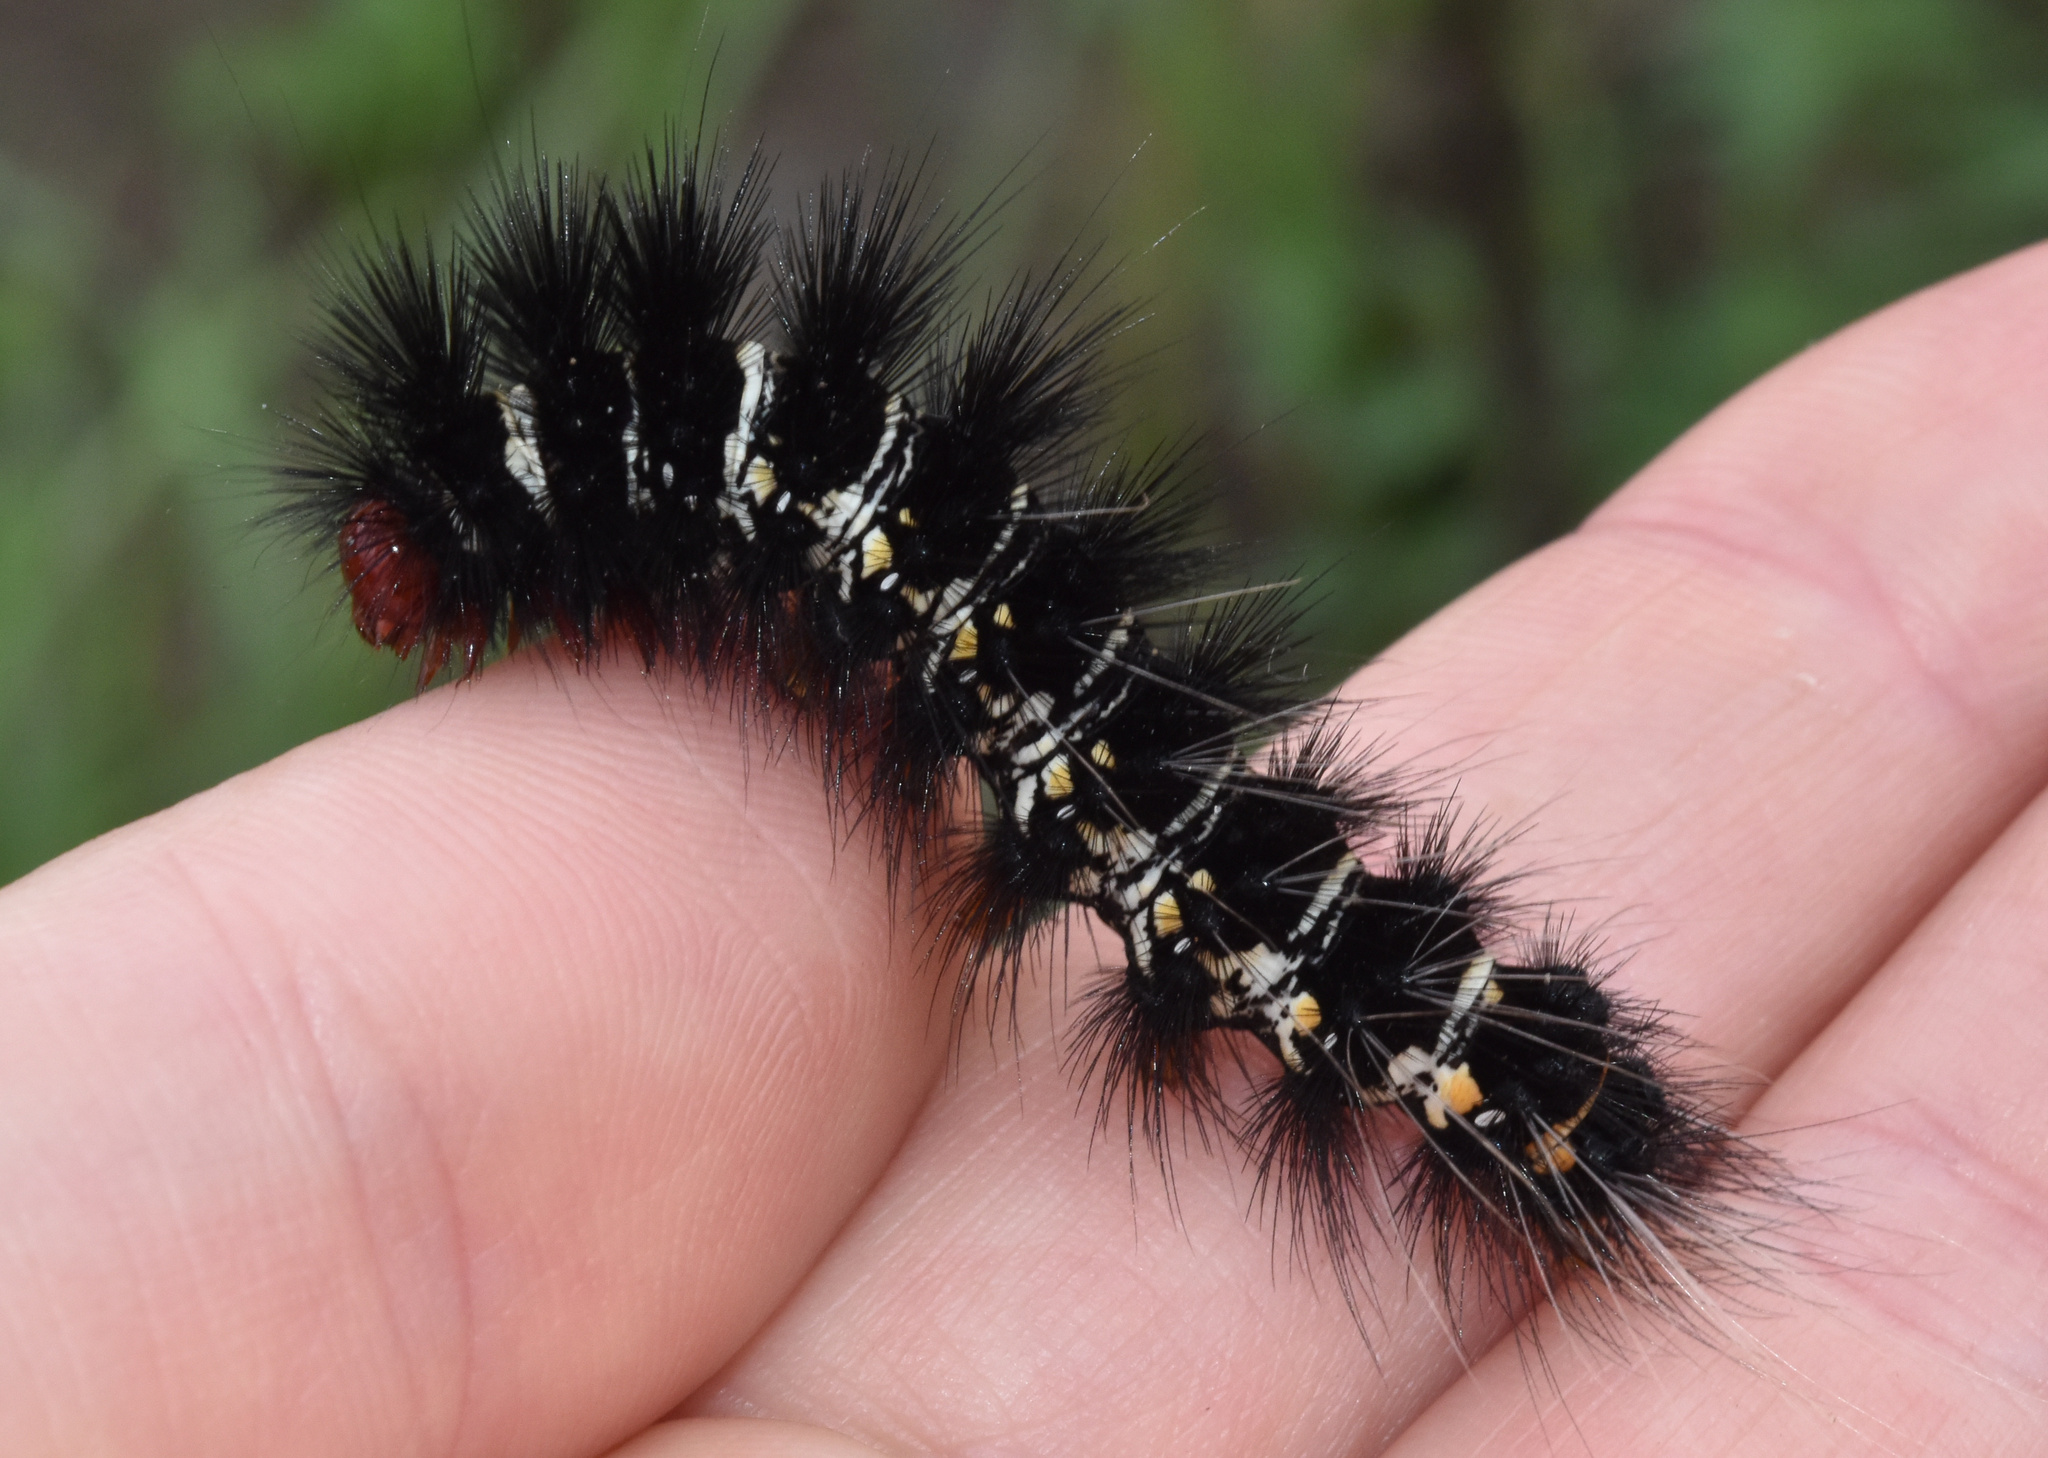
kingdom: Animalia
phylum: Arthropoda
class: Insecta
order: Lepidoptera
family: Erebidae
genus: Afromurzinia
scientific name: Afromurzinia lutescens
